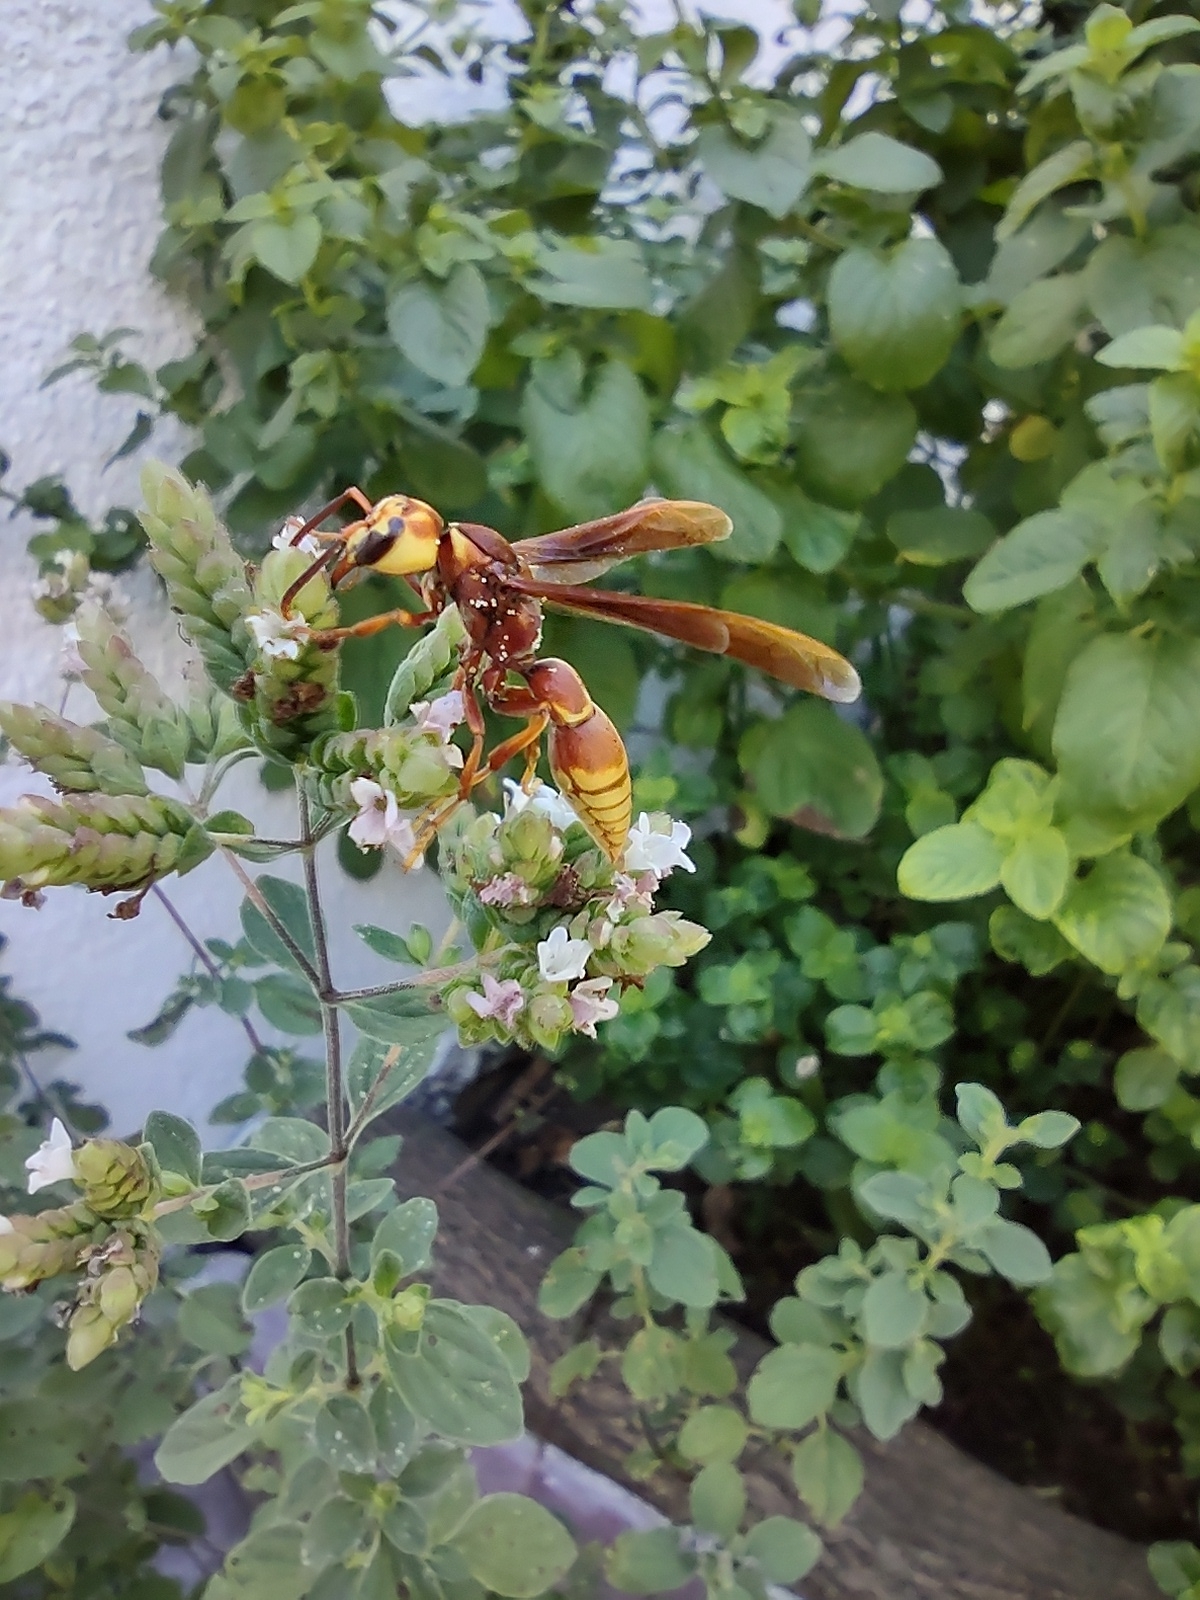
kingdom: Animalia
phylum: Arthropoda
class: Insecta
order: Hymenoptera
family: Eumenidae
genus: Montezumia
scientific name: Montezumia ferruginea
